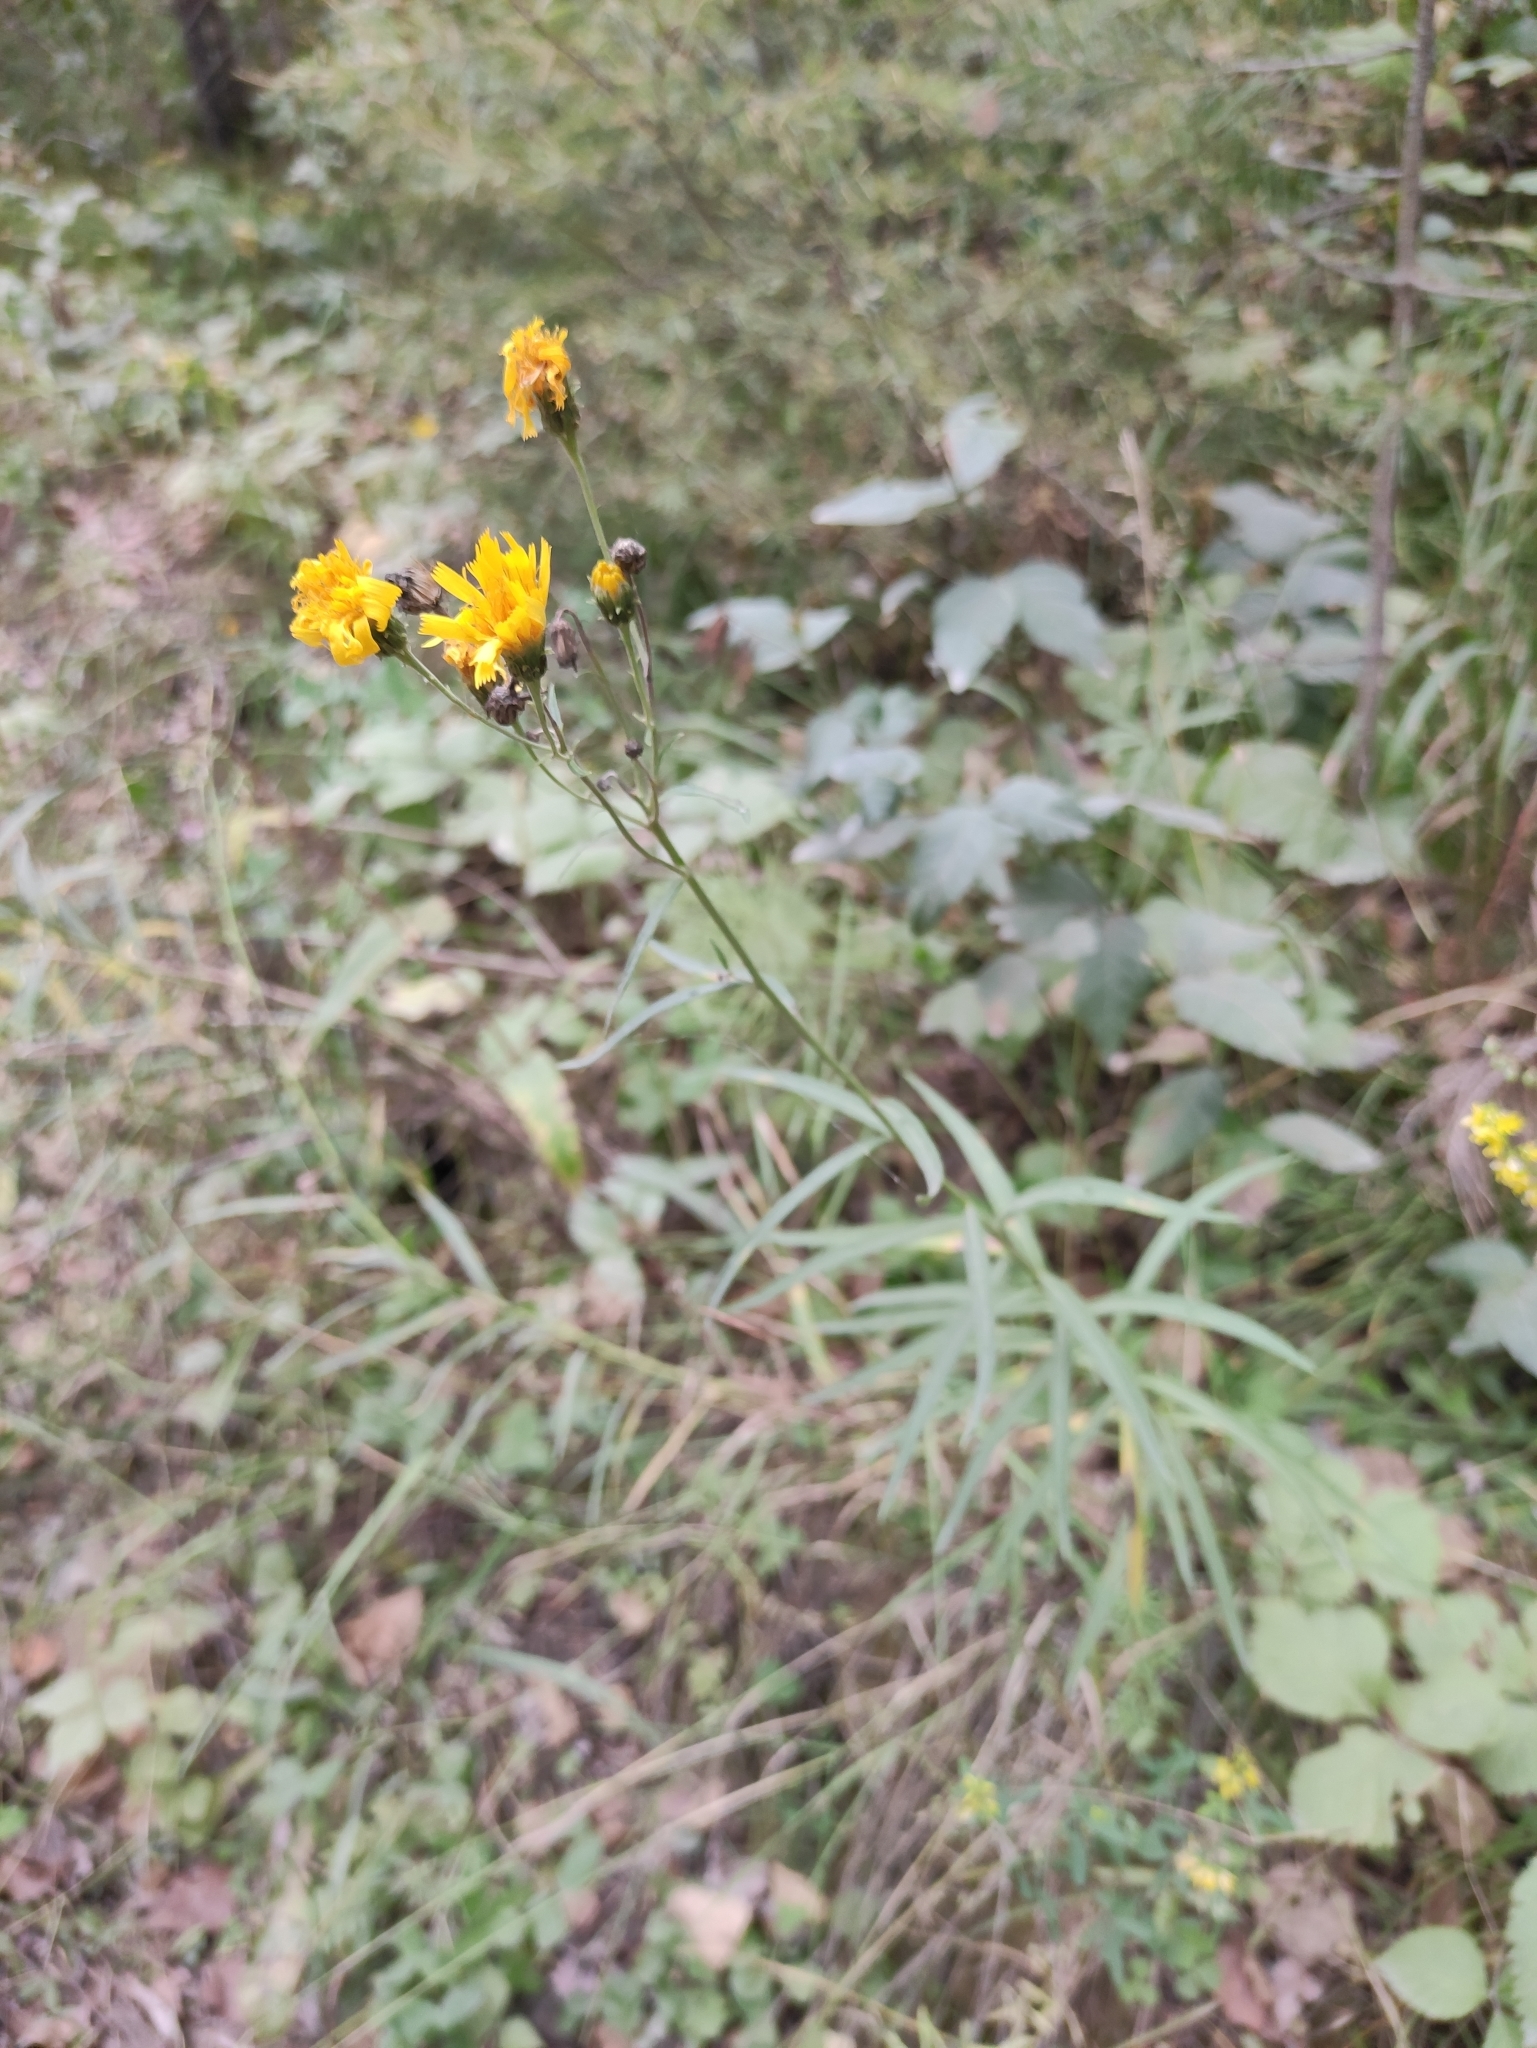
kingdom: Plantae
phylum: Tracheophyta
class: Magnoliopsida
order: Asterales
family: Asteraceae
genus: Hieracium
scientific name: Hieracium umbellatum
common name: Northern hawkweed
